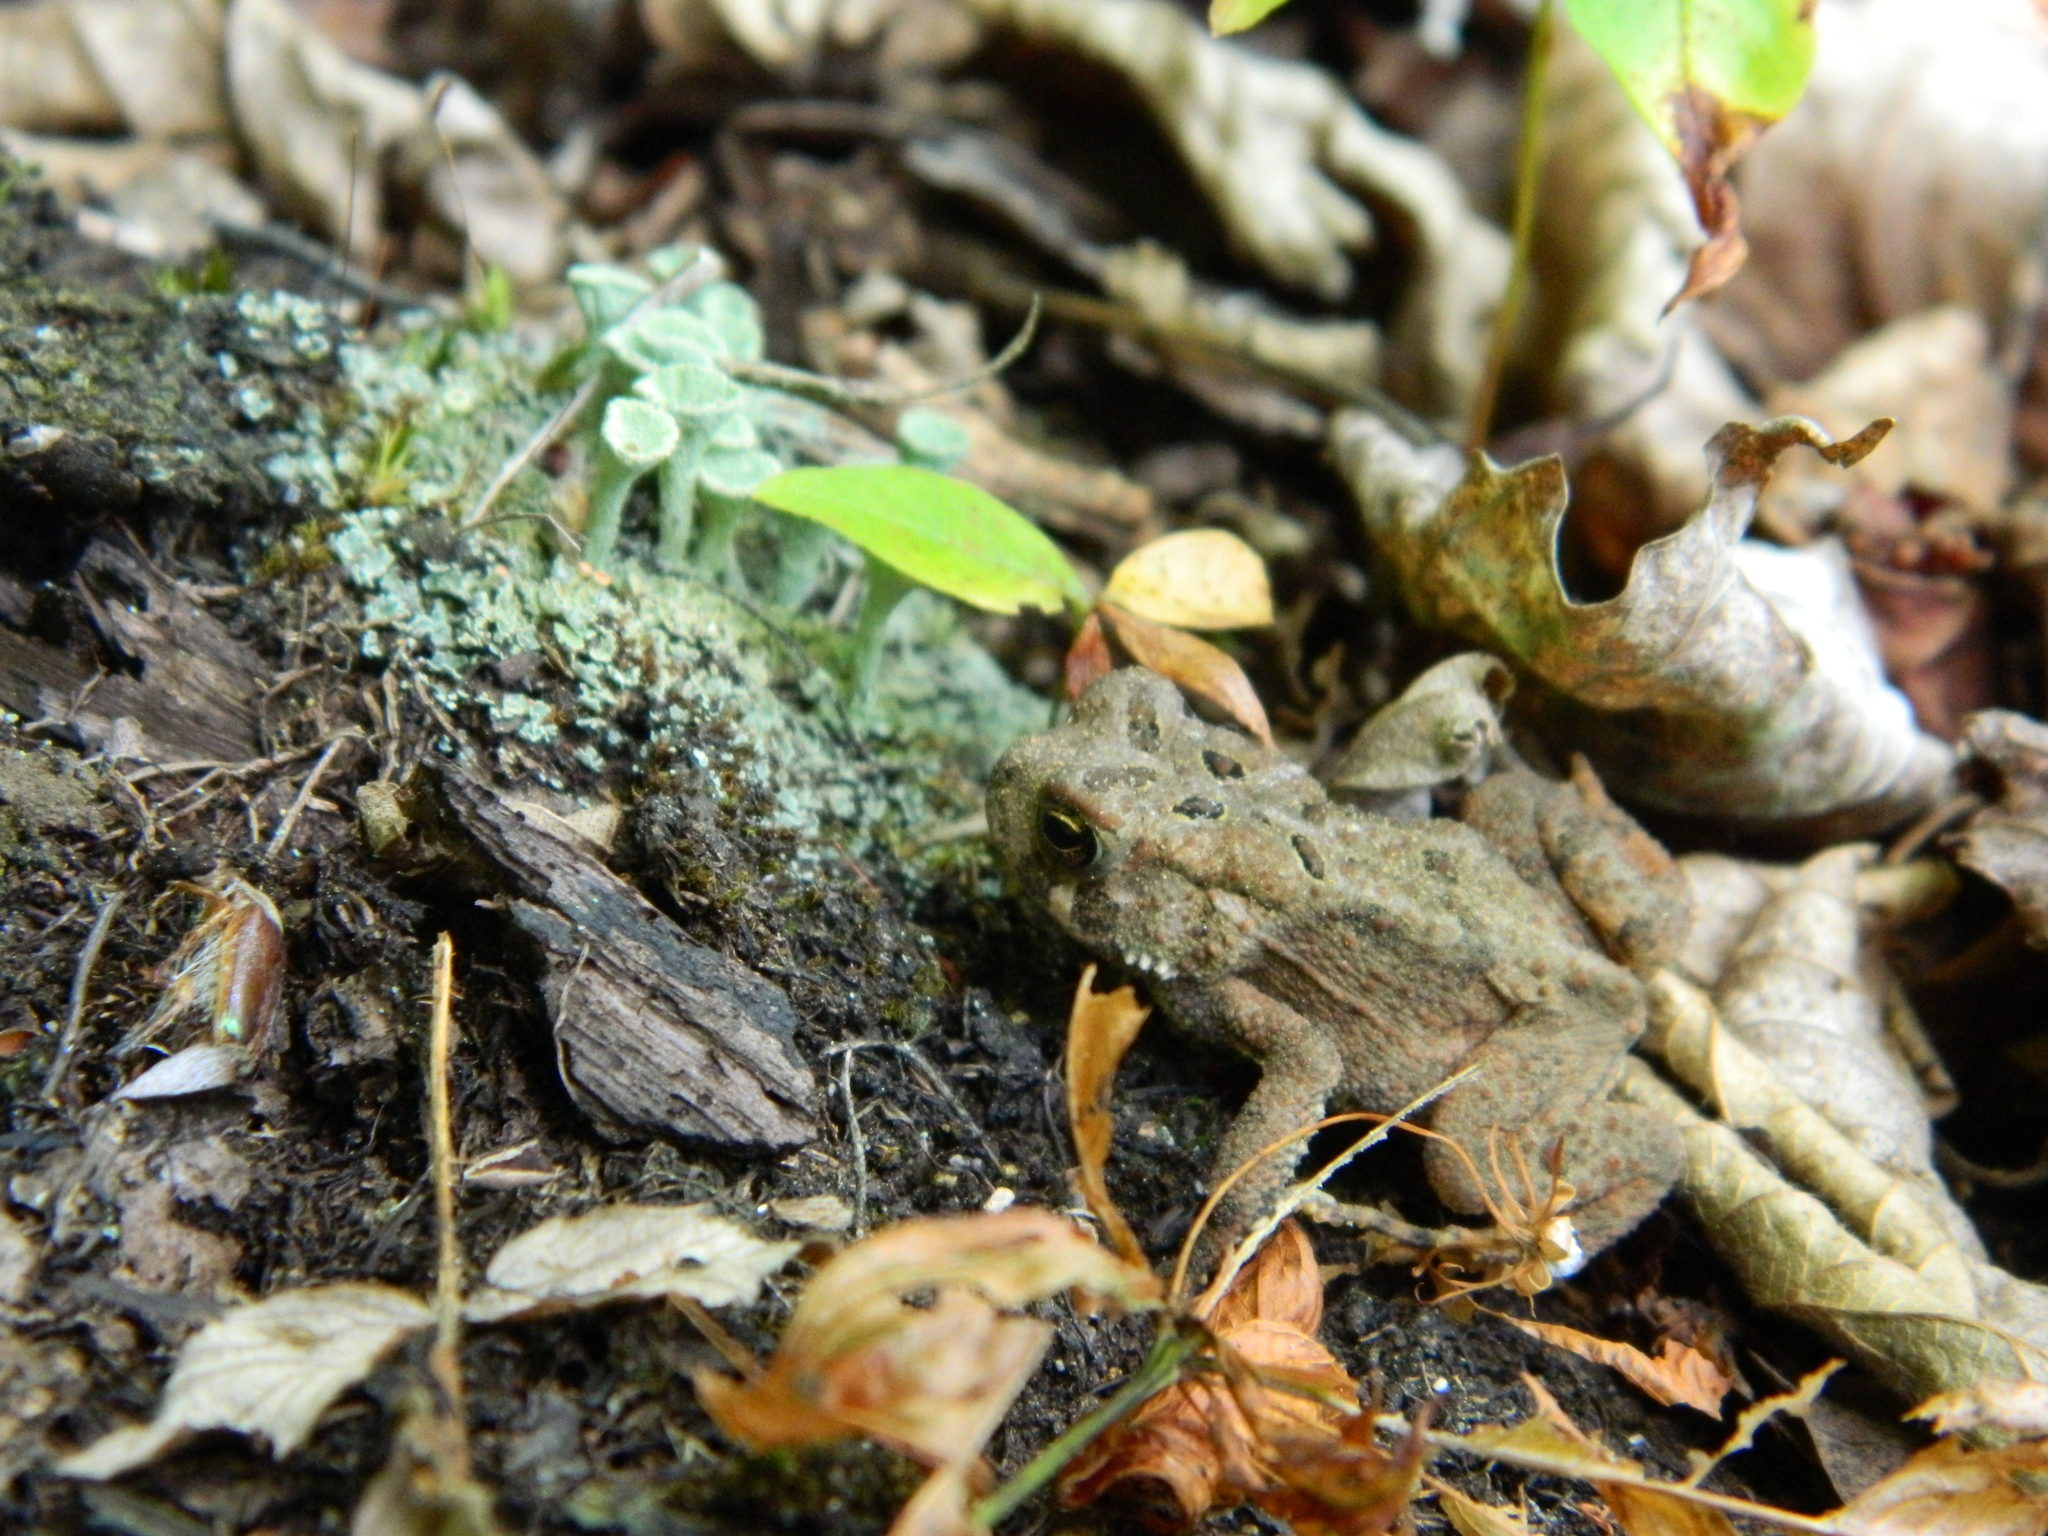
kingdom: Animalia
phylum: Chordata
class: Amphibia
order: Anura
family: Bufonidae
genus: Anaxyrus
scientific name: Anaxyrus americanus
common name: American toad
